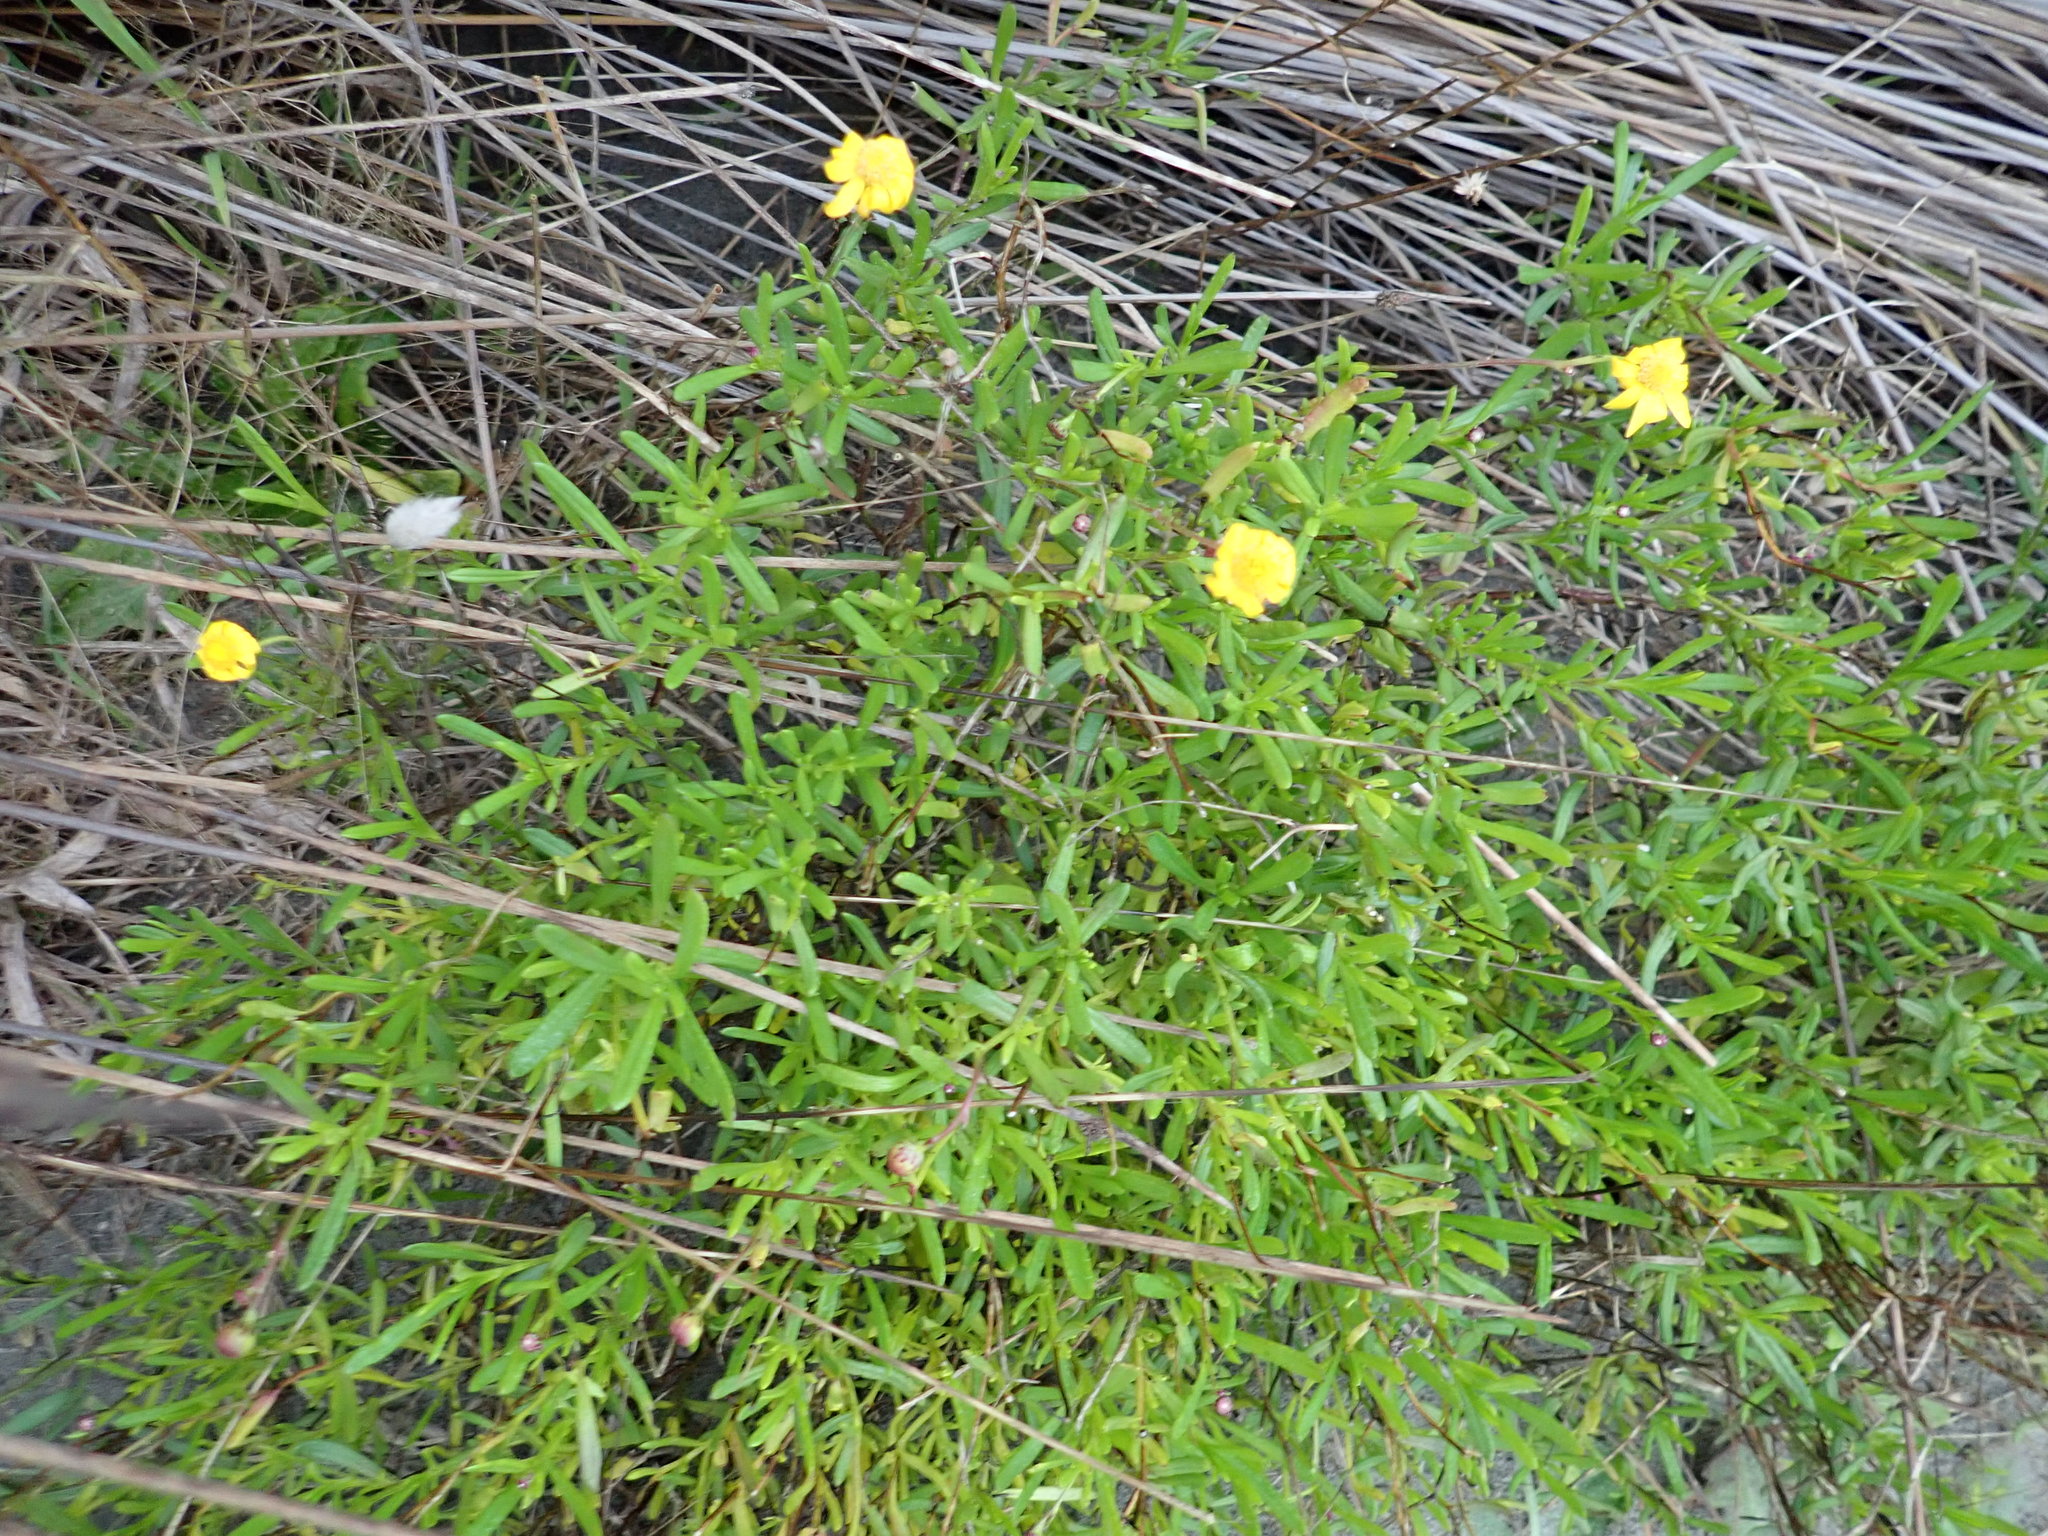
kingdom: Plantae
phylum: Tracheophyta
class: Magnoliopsida
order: Asterales
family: Asteraceae
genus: Senecio
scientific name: Senecio skirrhodon
